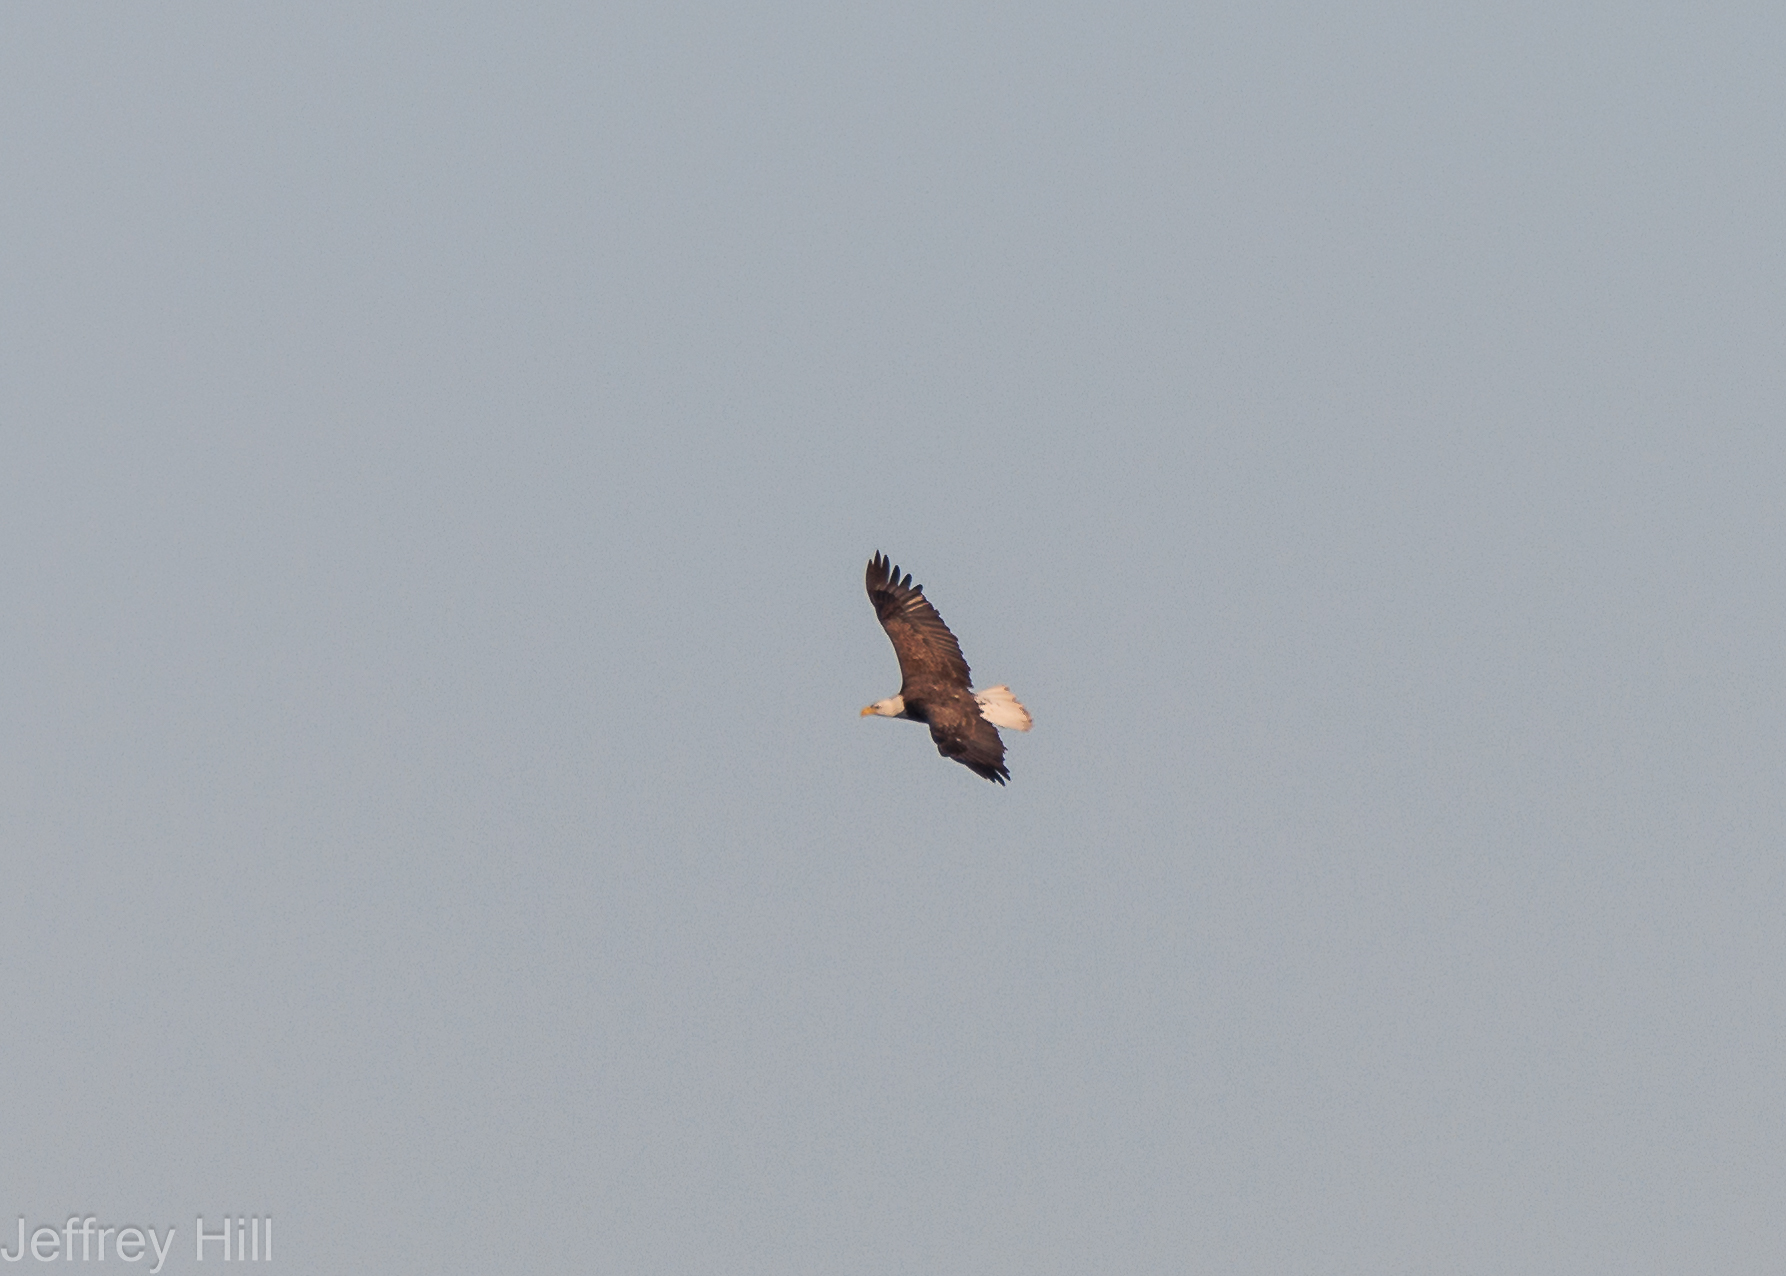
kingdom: Animalia
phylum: Chordata
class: Aves
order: Accipitriformes
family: Accipitridae
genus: Haliaeetus
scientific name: Haliaeetus leucocephalus
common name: Bald eagle
